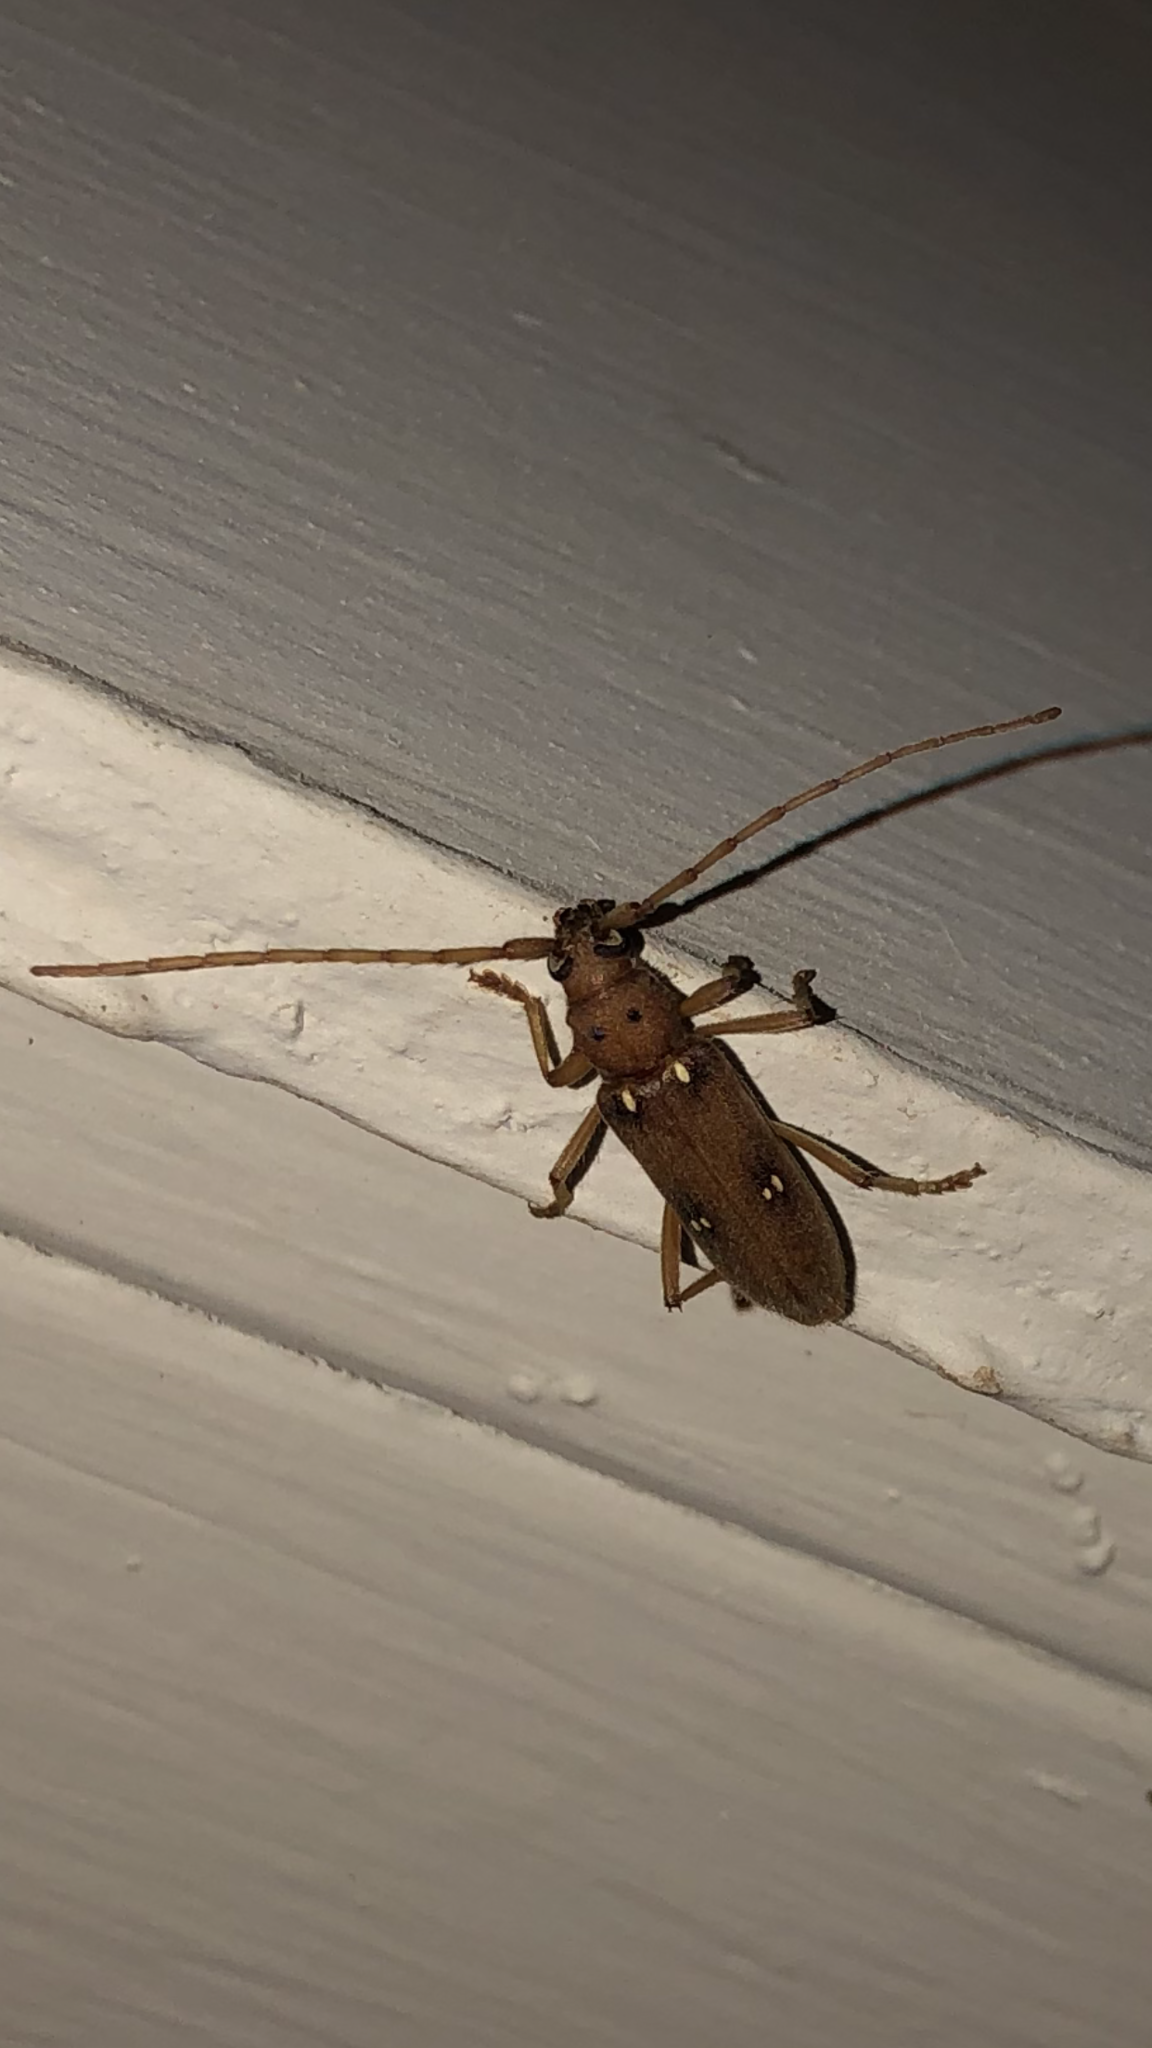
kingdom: Animalia
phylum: Arthropoda
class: Insecta
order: Coleoptera
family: Cerambycidae
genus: Eburia
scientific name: Eburia haldemani
